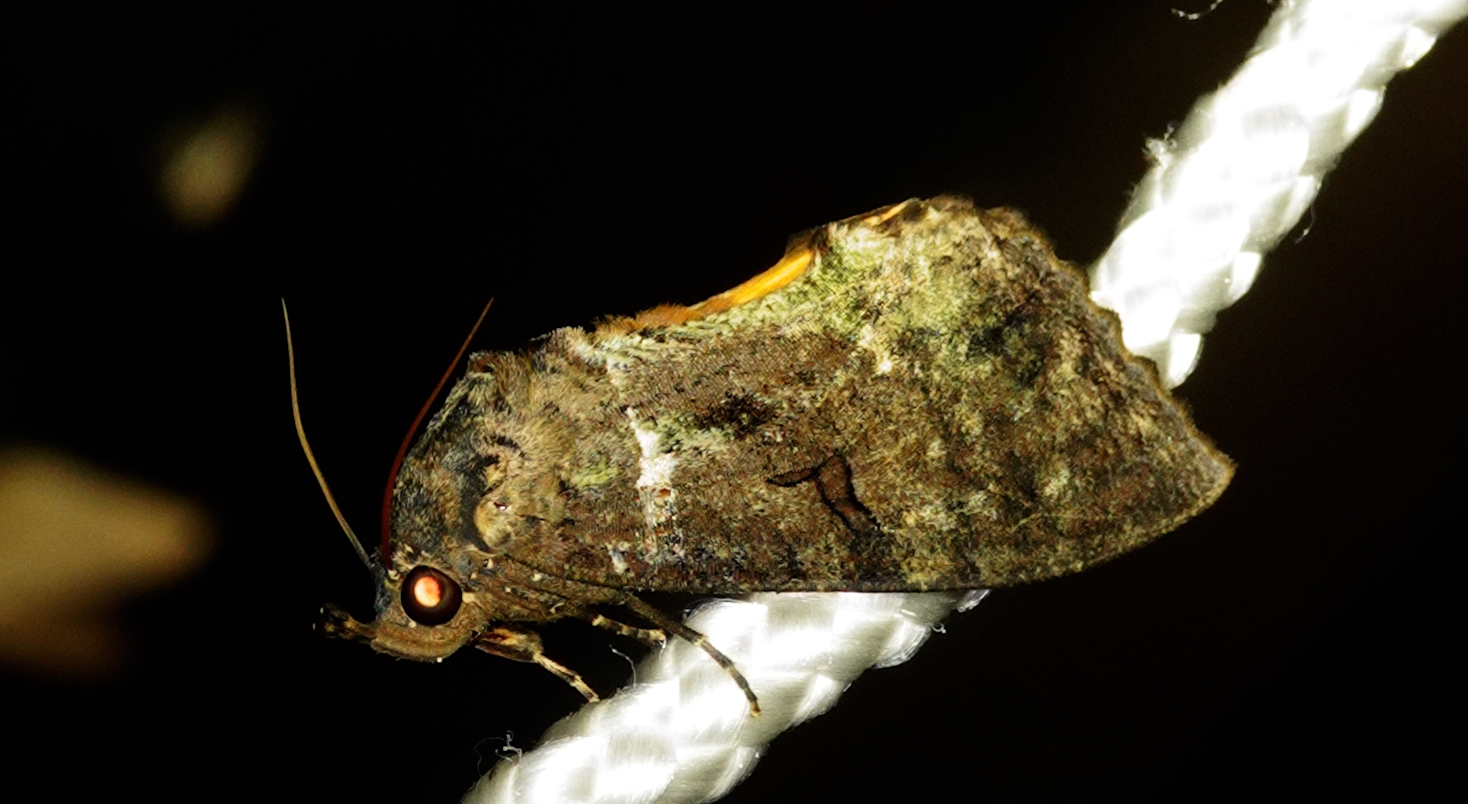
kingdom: Animalia
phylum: Arthropoda
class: Insecta
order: Lepidoptera
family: Erebidae
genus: Eudocima
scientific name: Eudocima cajeta
